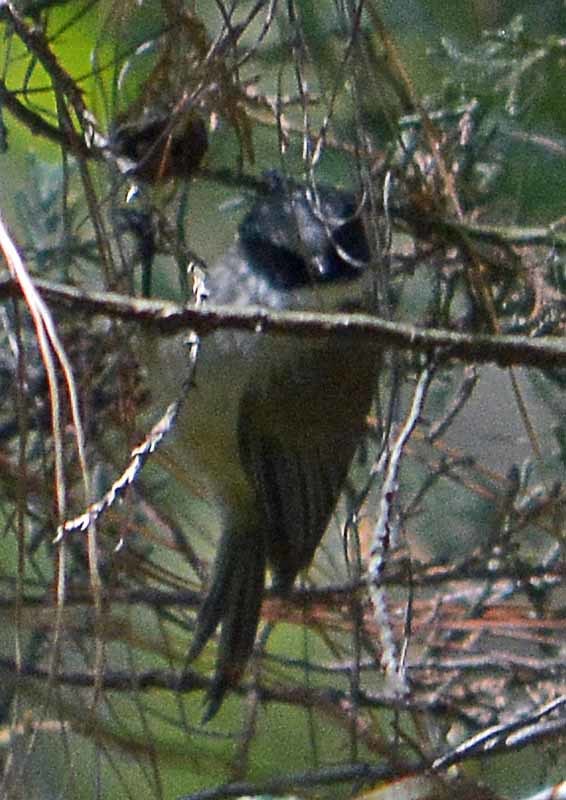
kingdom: Animalia
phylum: Chordata
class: Aves
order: Passeriformes
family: Aegithalidae
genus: Psaltriparus
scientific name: Psaltriparus minimus
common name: American bushtit
